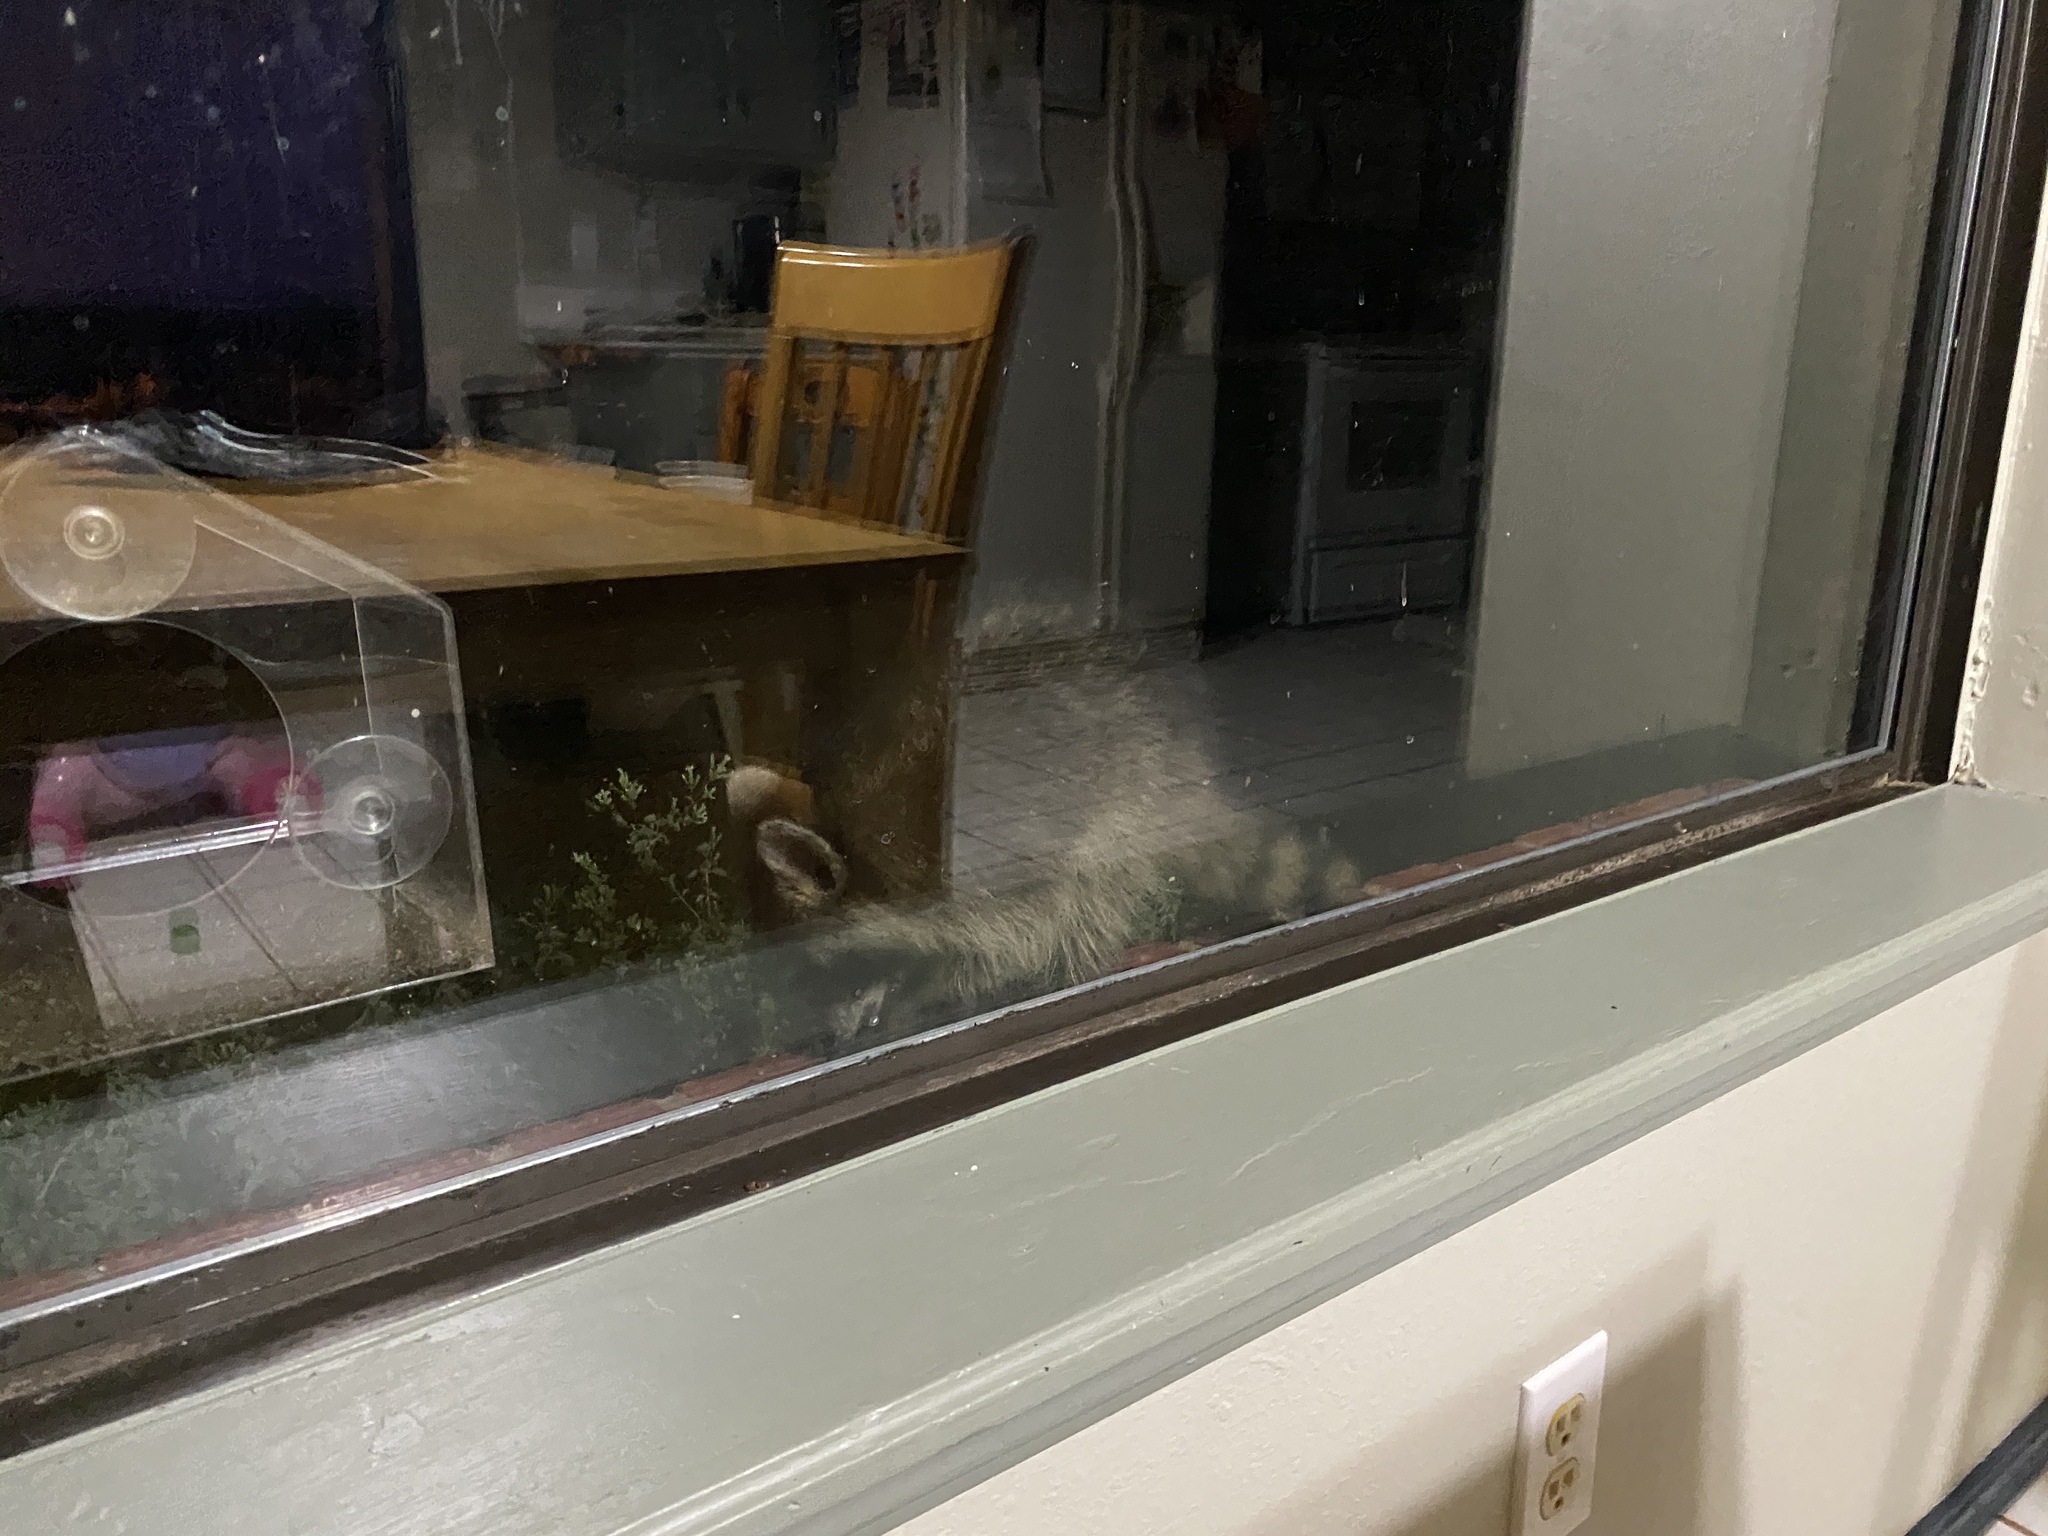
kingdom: Animalia
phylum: Chordata
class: Mammalia
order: Carnivora
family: Procyonidae
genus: Procyon
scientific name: Procyon lotor
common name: Raccoon
